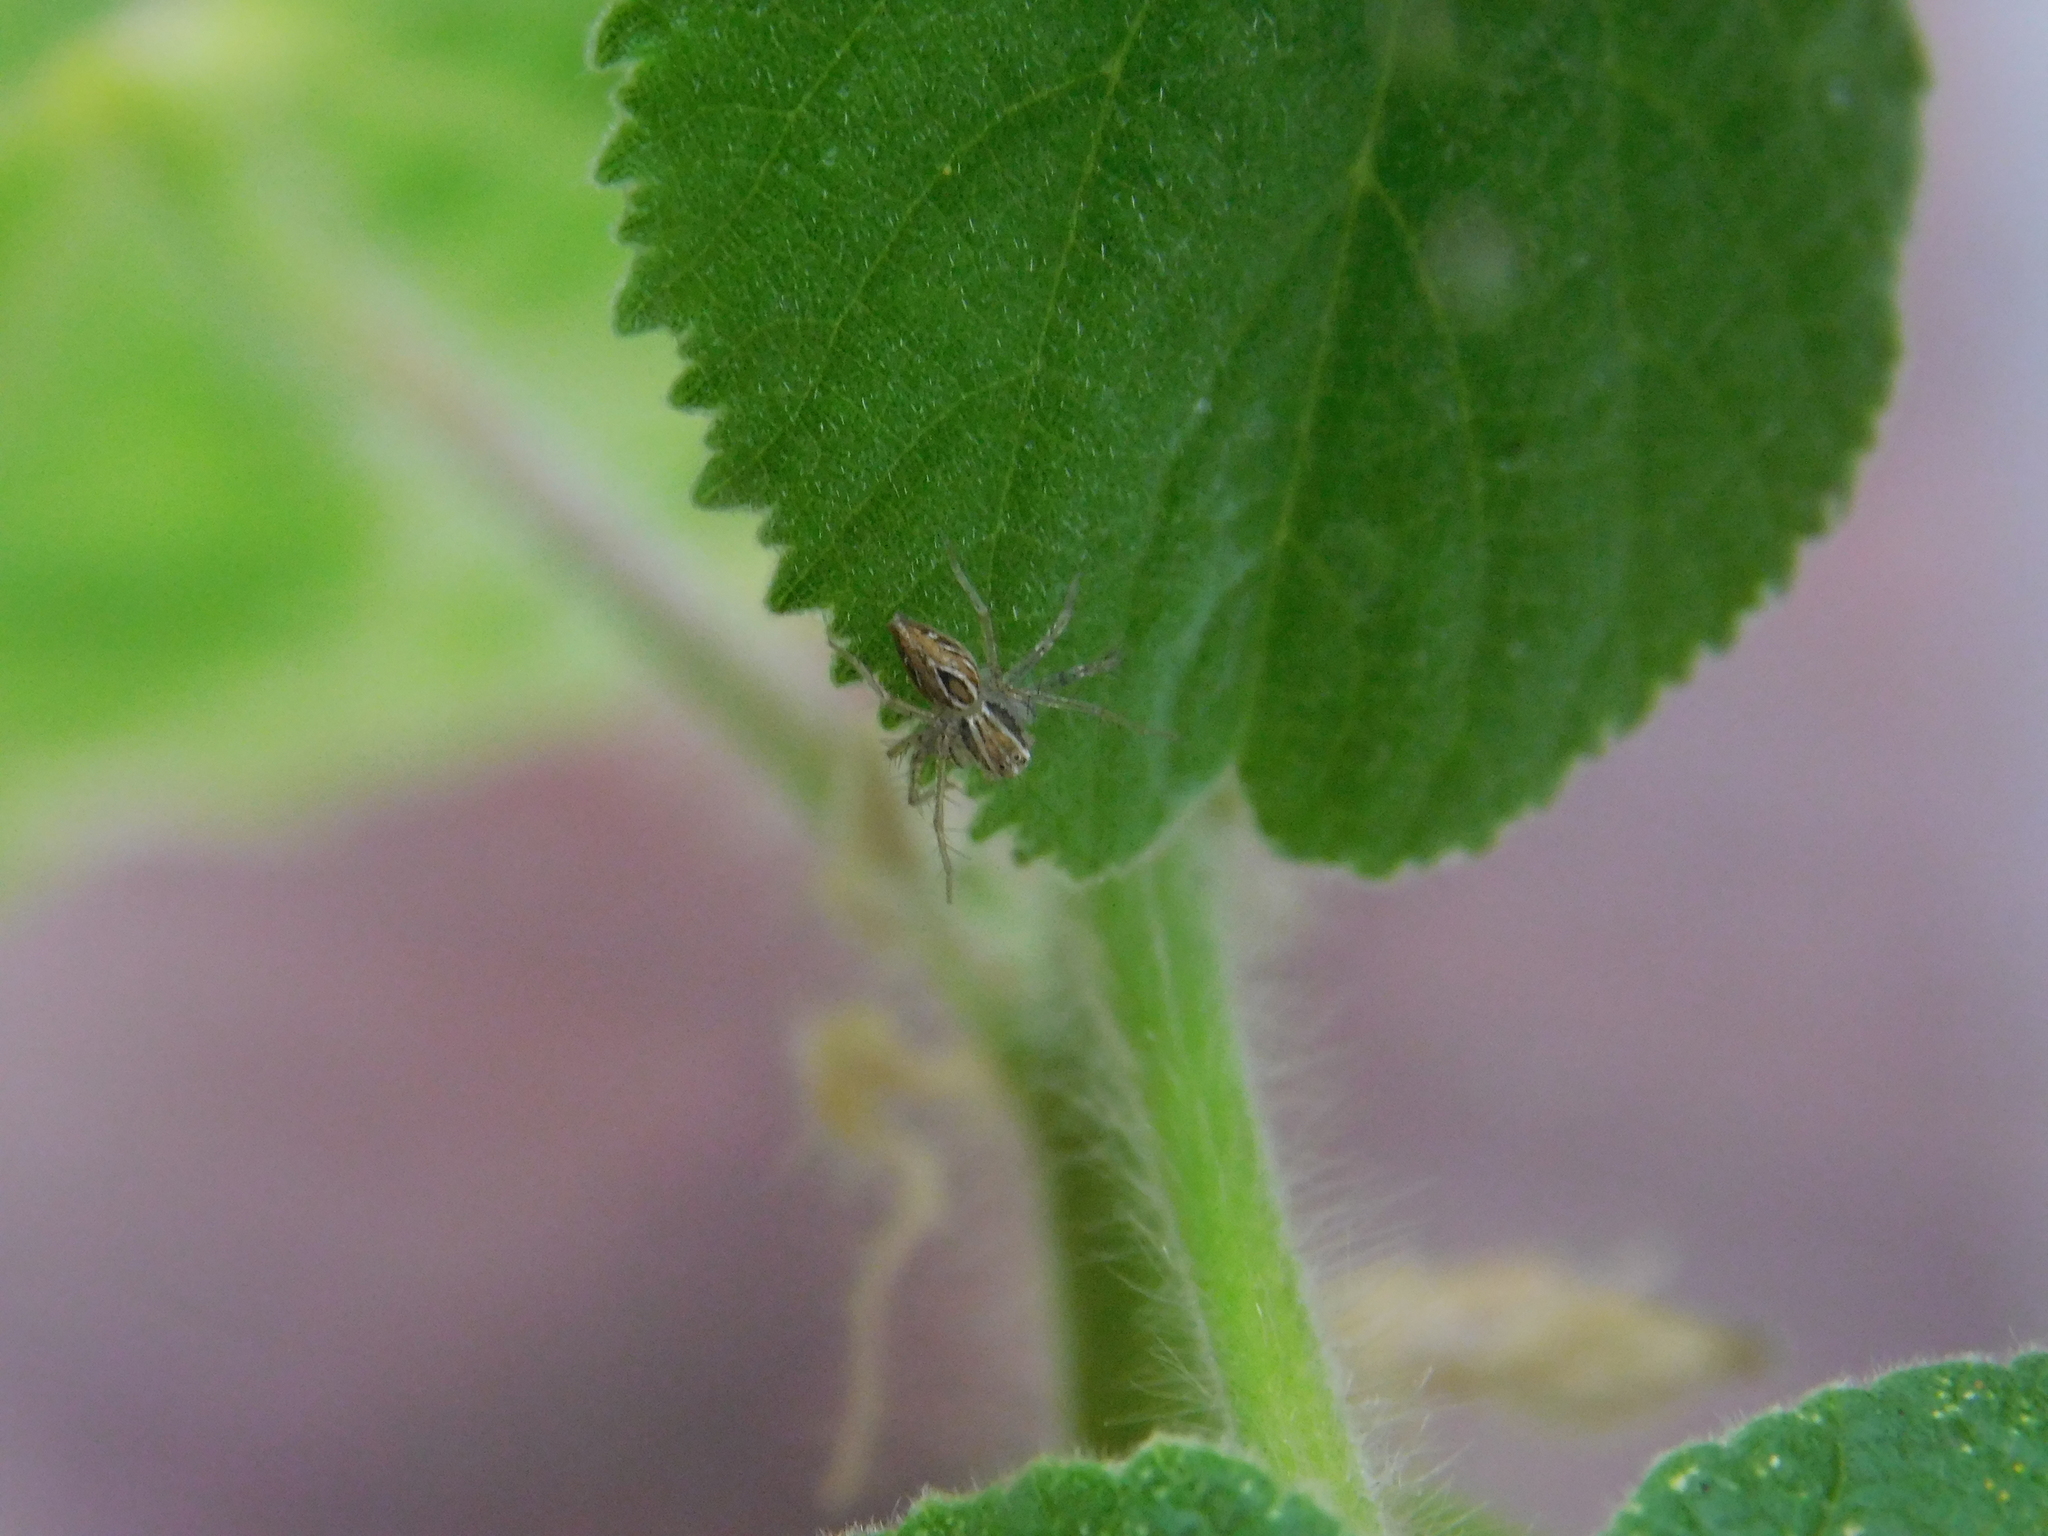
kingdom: Animalia
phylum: Arthropoda
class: Arachnida
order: Araneae
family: Oxyopidae
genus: Oxyopes
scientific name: Oxyopes salticus
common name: Lynx spiders
